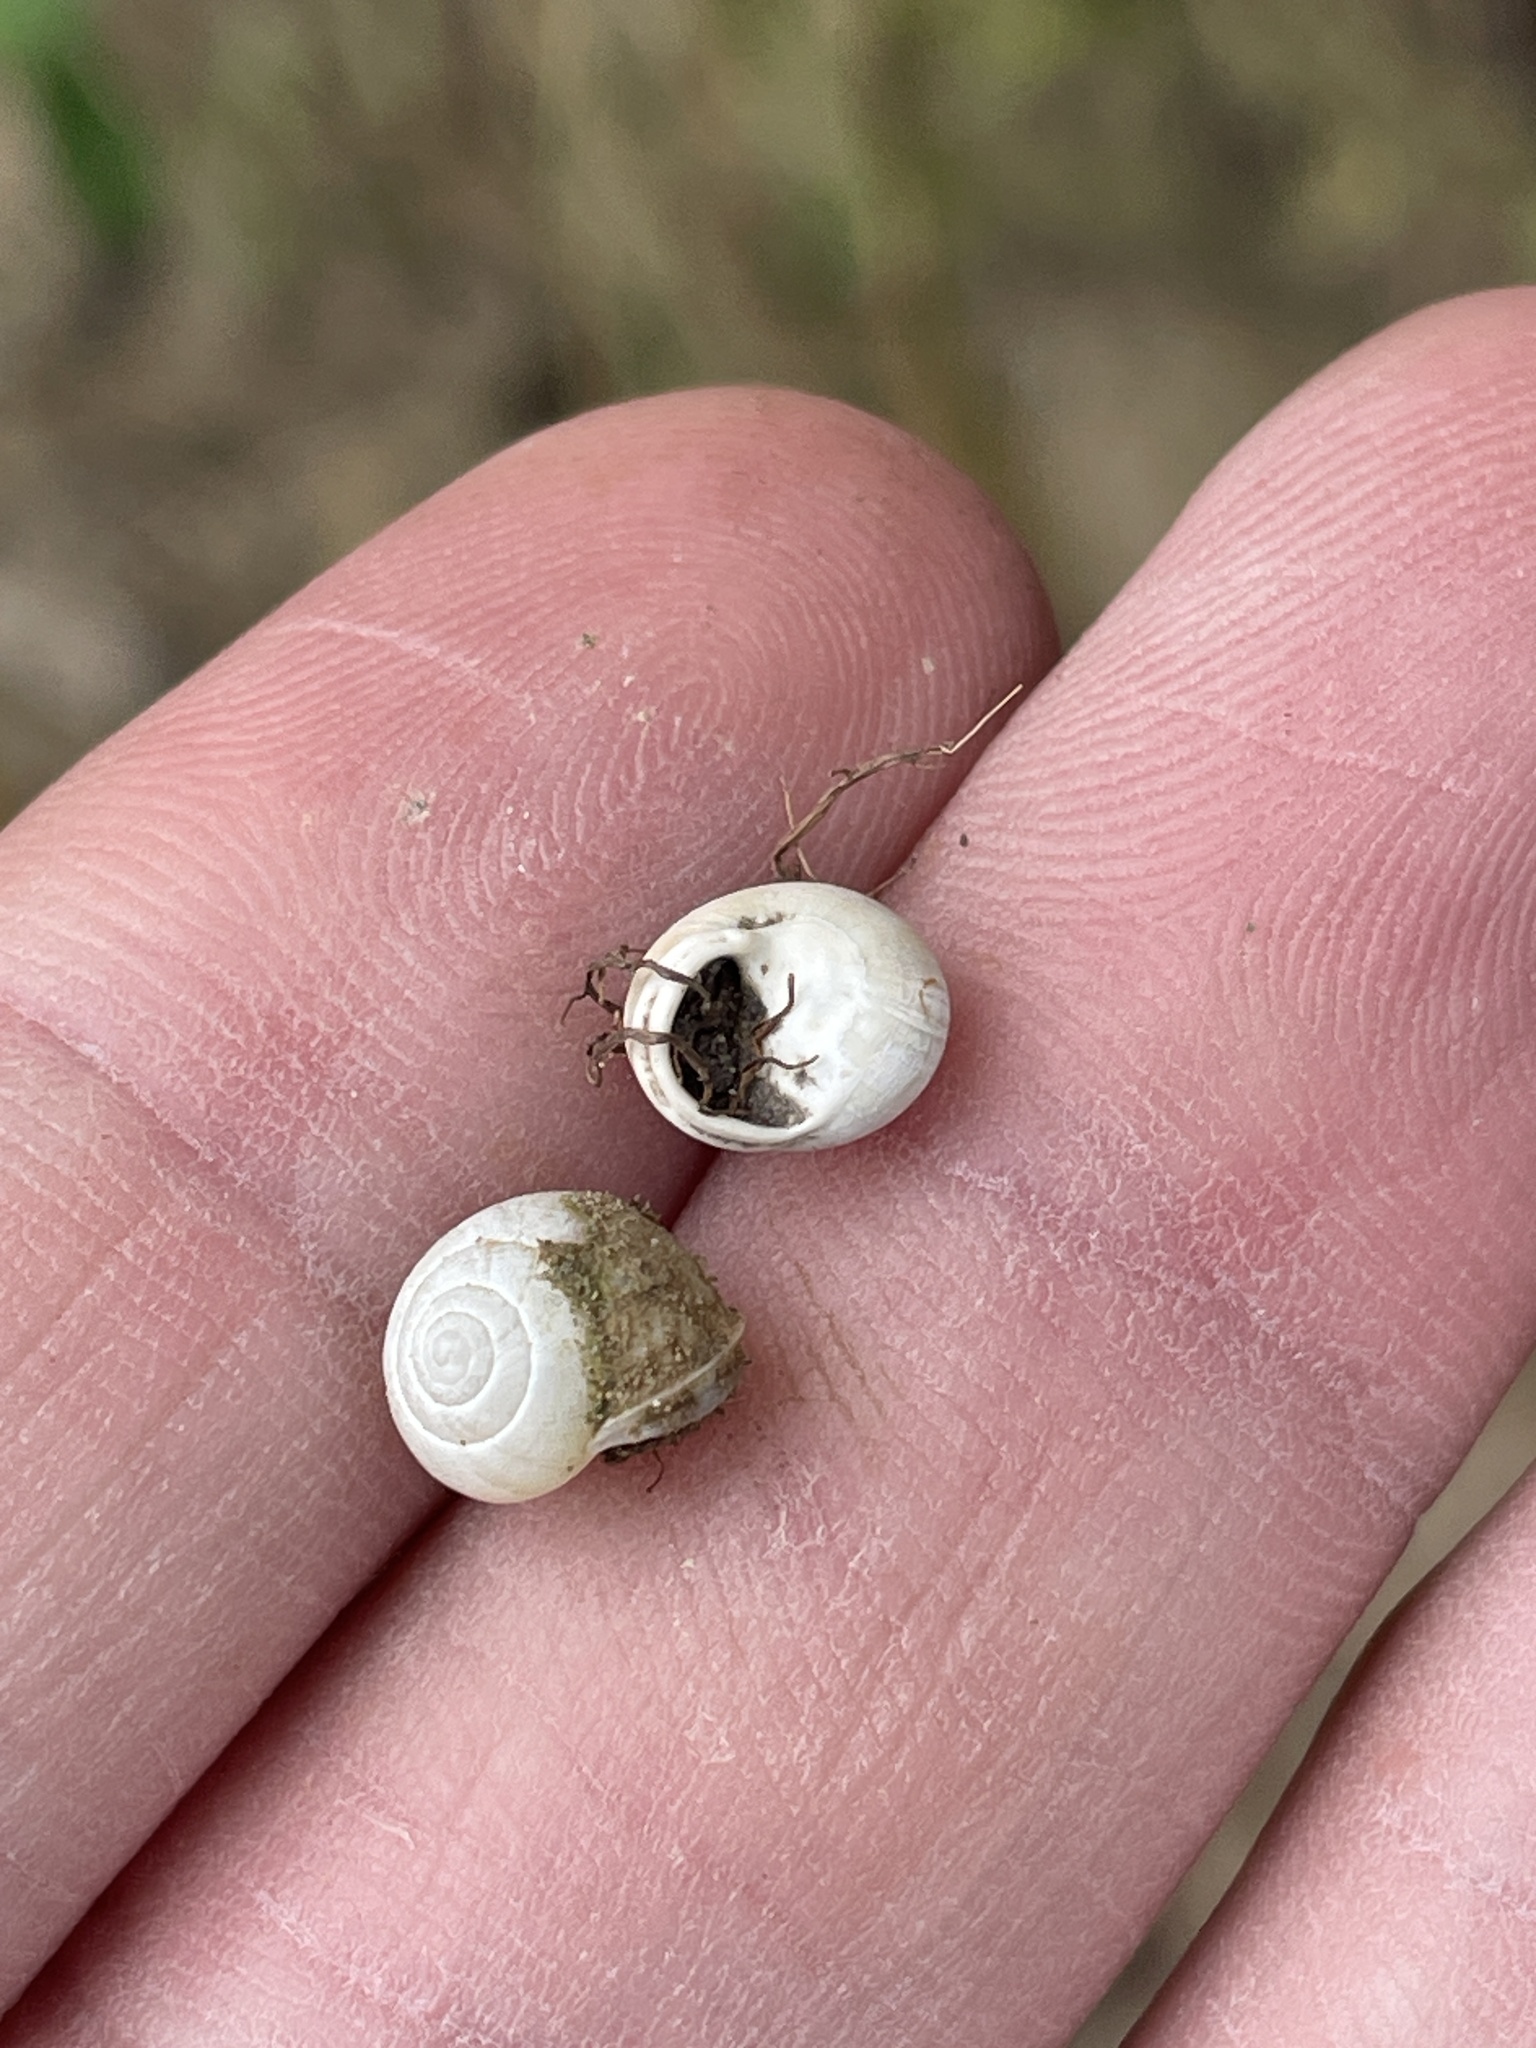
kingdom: Animalia
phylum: Mollusca
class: Gastropoda
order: Cycloneritida
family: Helicinidae
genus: Helicina
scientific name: Helicina orbiculata
